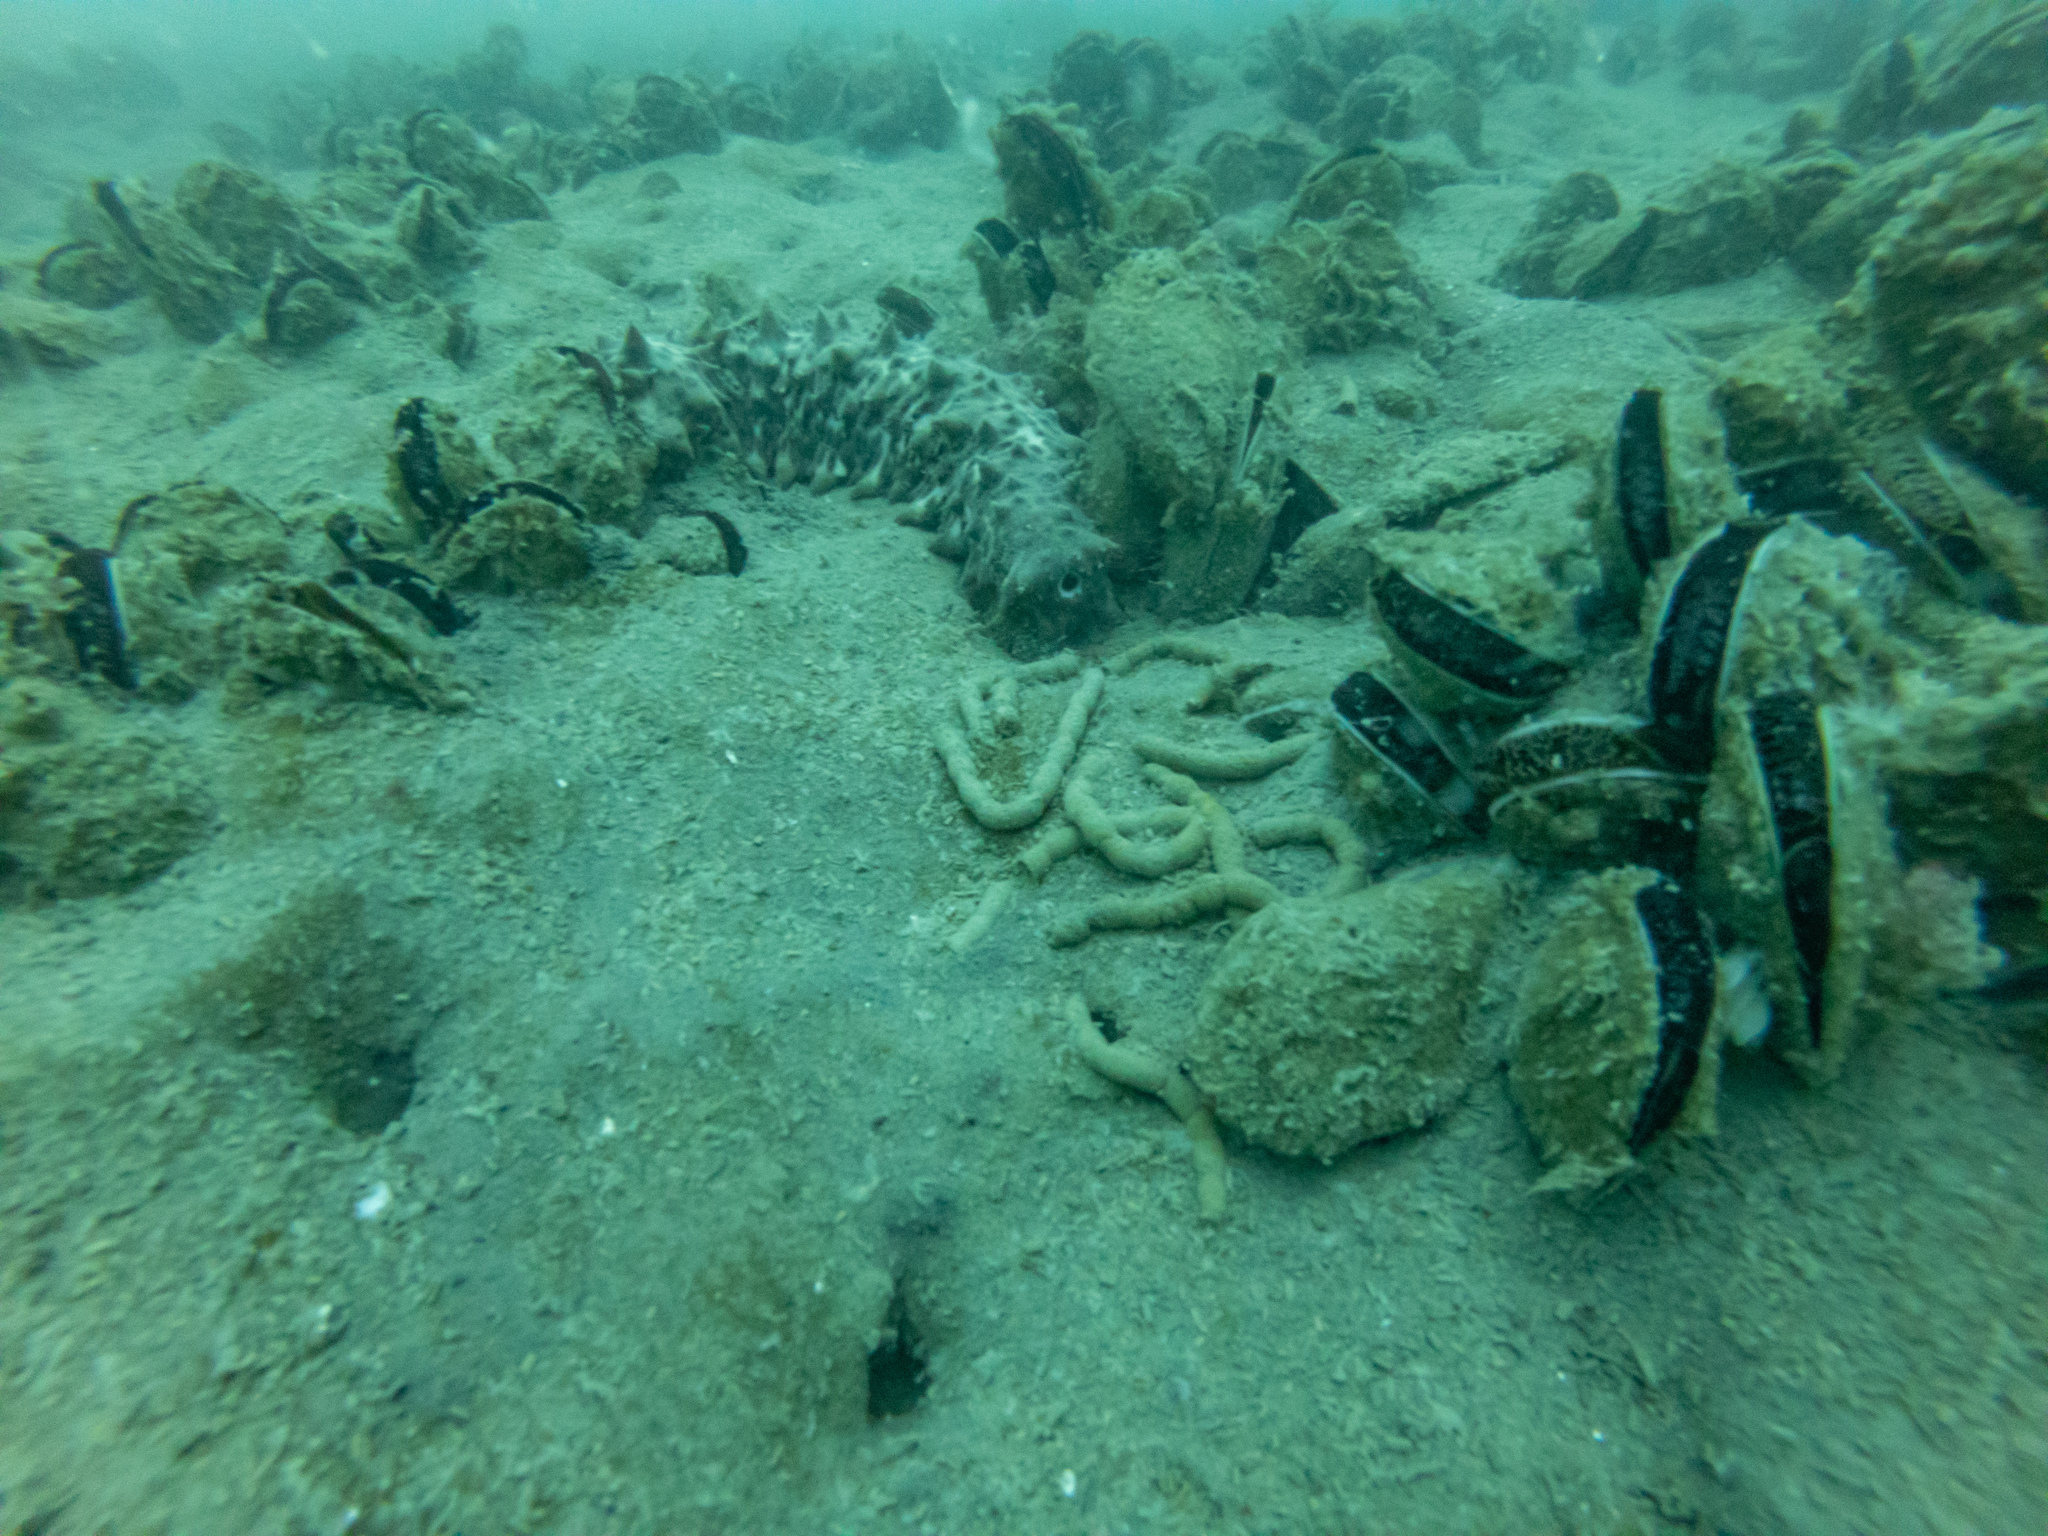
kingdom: Animalia
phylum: Echinodermata
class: Holothuroidea
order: Synallactida
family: Stichopodidae
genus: Australostichopus
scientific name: Australostichopus mollis
